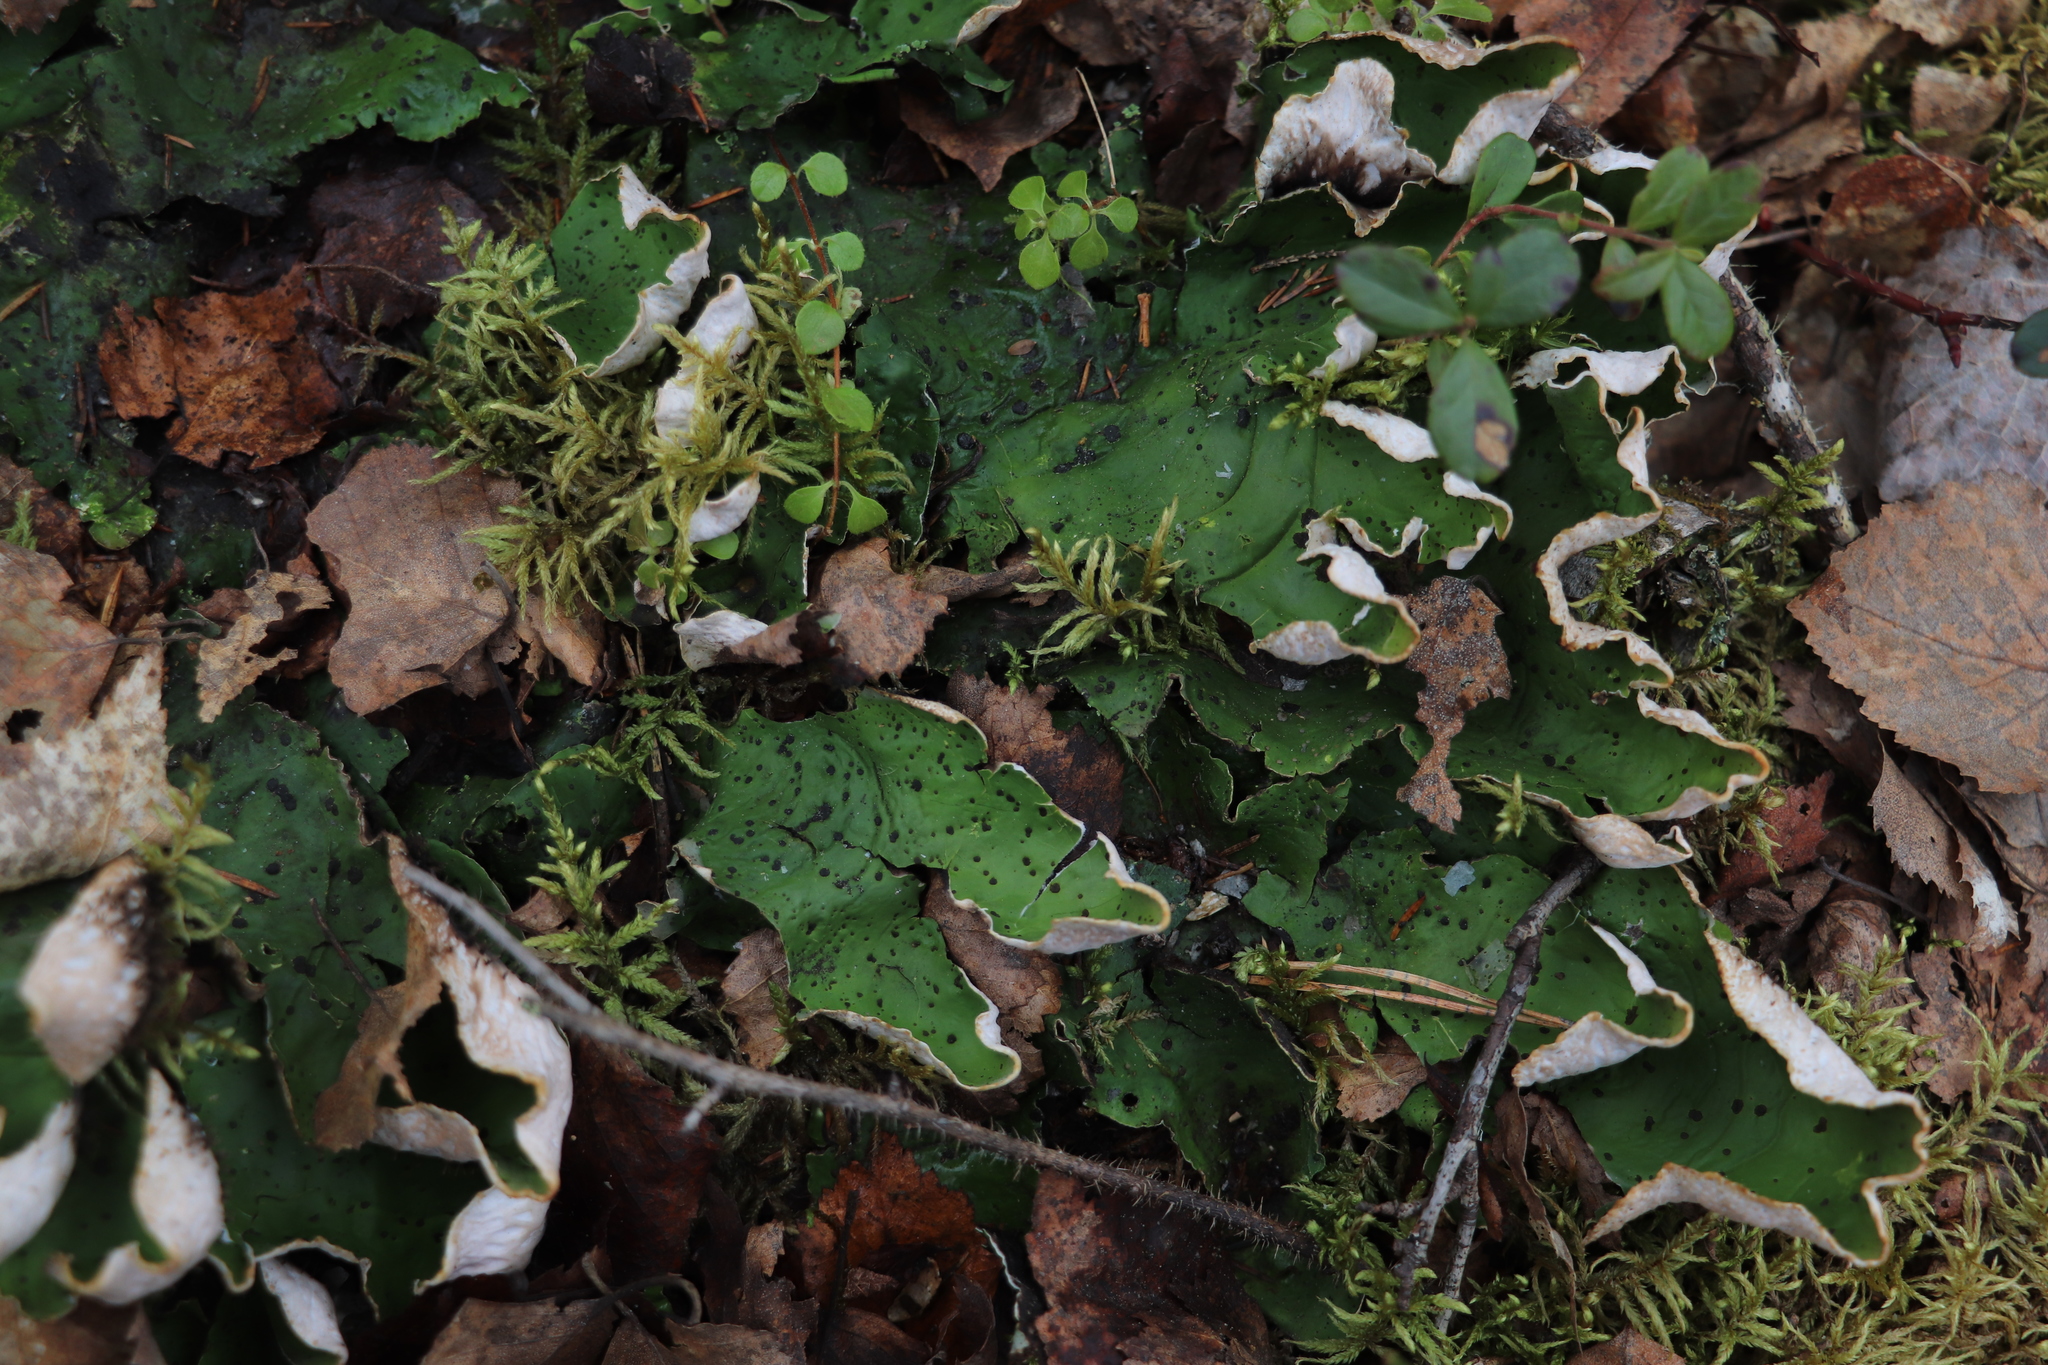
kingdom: Fungi
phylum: Ascomycota
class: Lecanoromycetes
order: Peltigerales
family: Peltigeraceae
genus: Peltigera
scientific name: Peltigera aphthosa
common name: Common freckle pelt lichen
